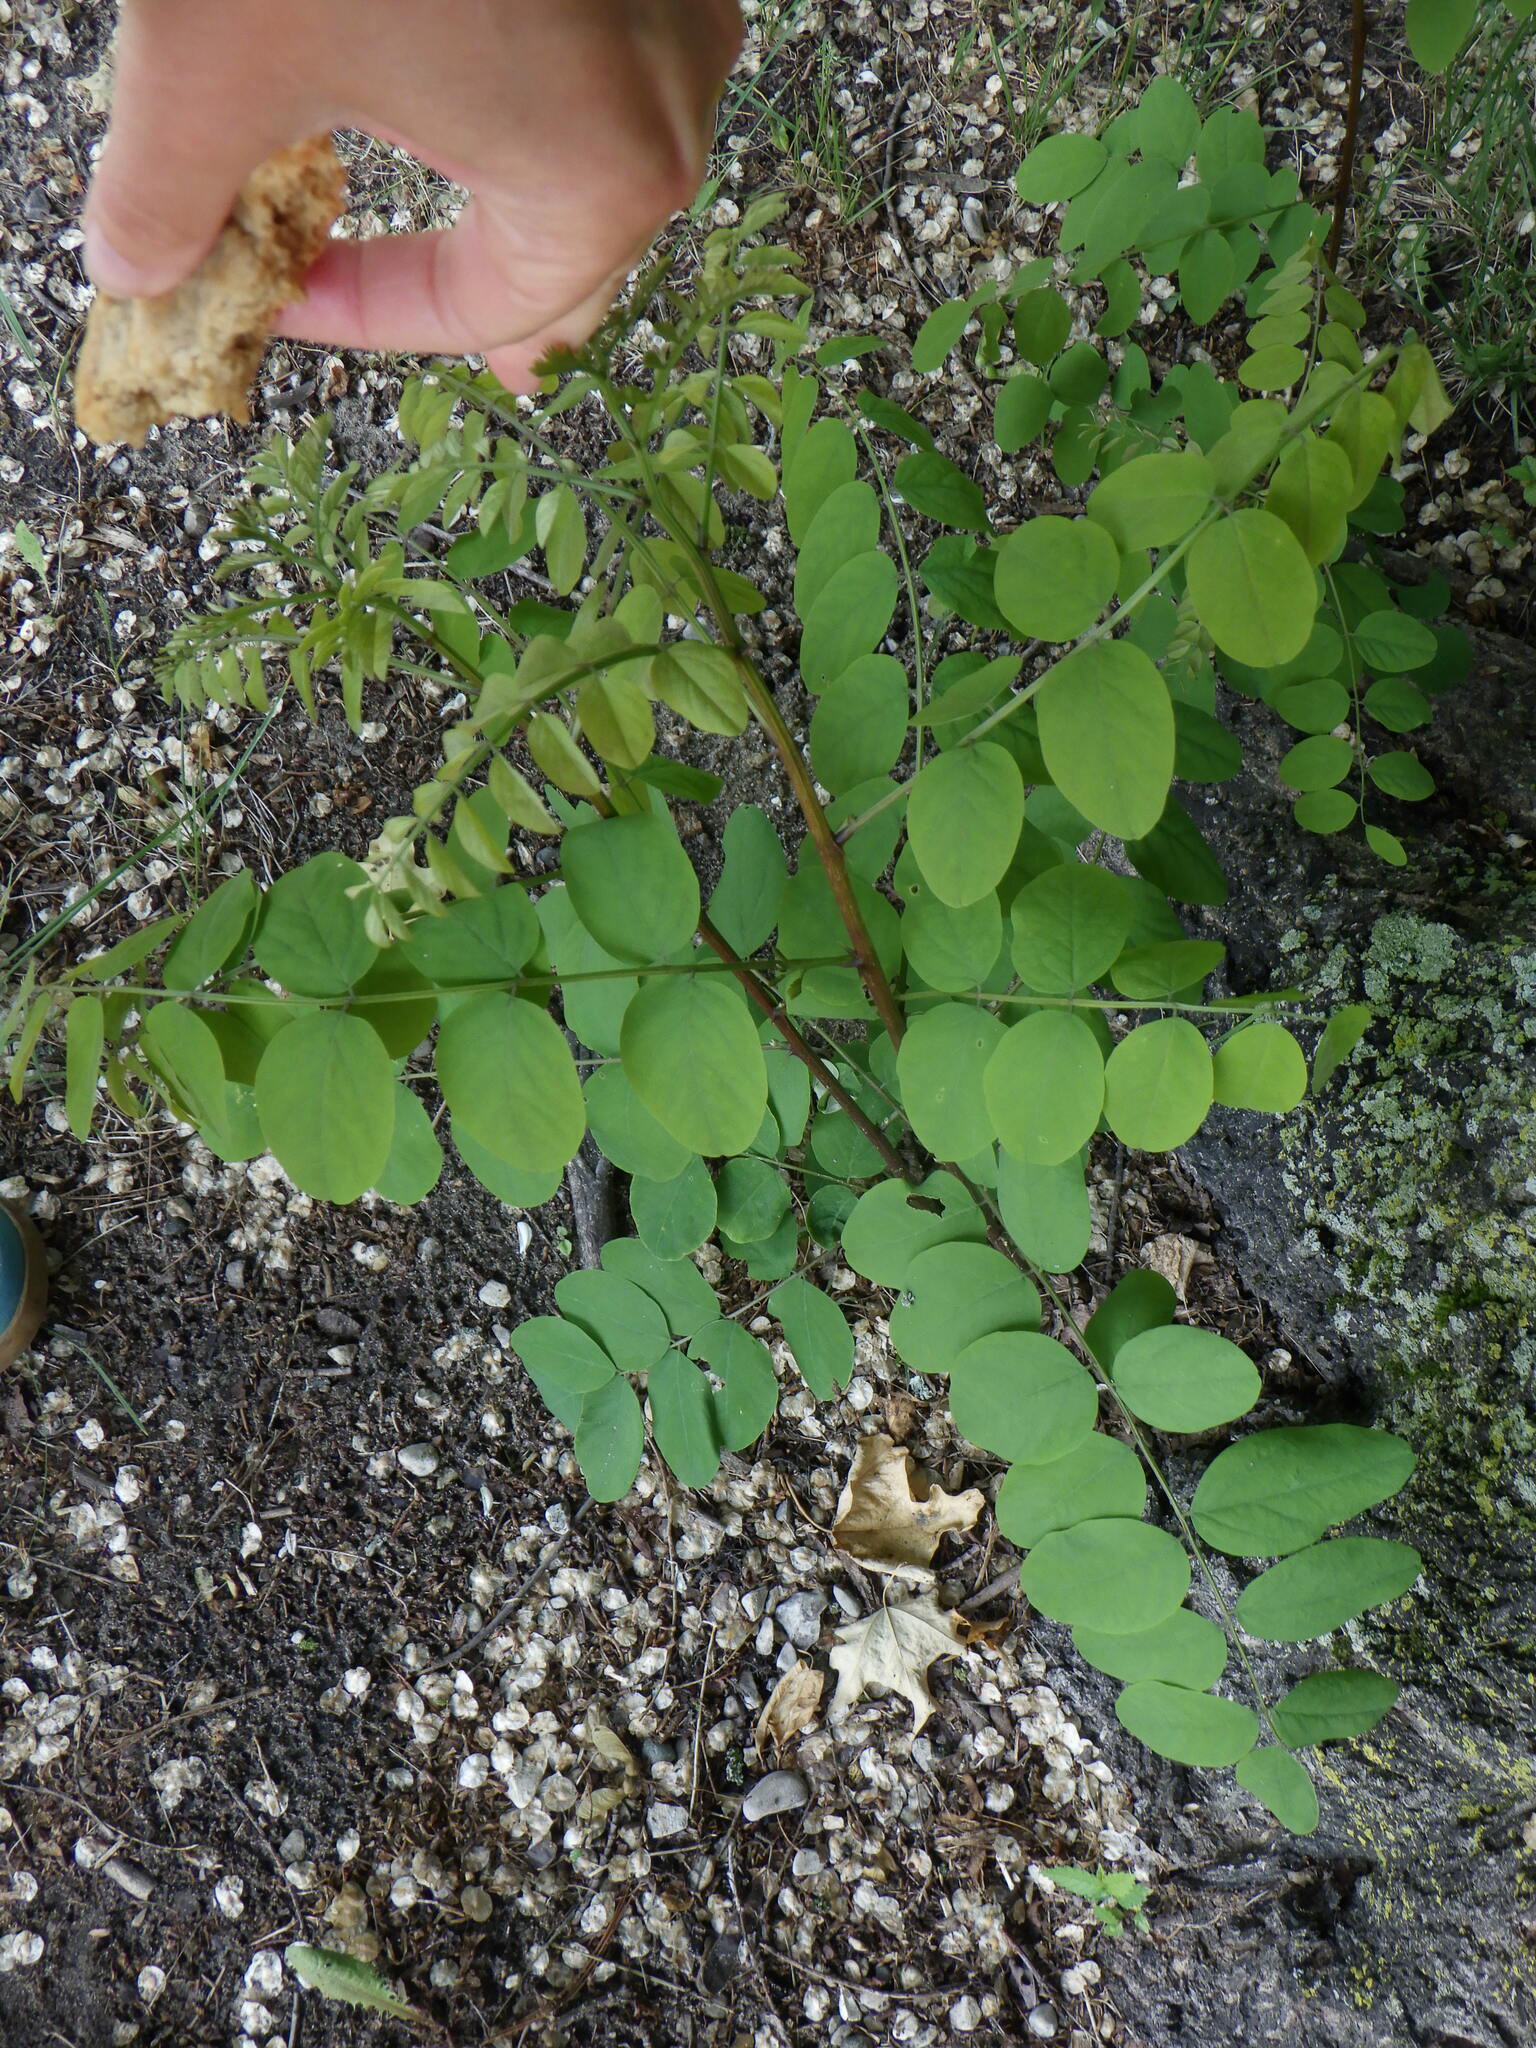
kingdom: Plantae
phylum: Tracheophyta
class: Magnoliopsida
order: Fabales
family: Fabaceae
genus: Robinia
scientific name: Robinia pseudoacacia
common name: Black locust
